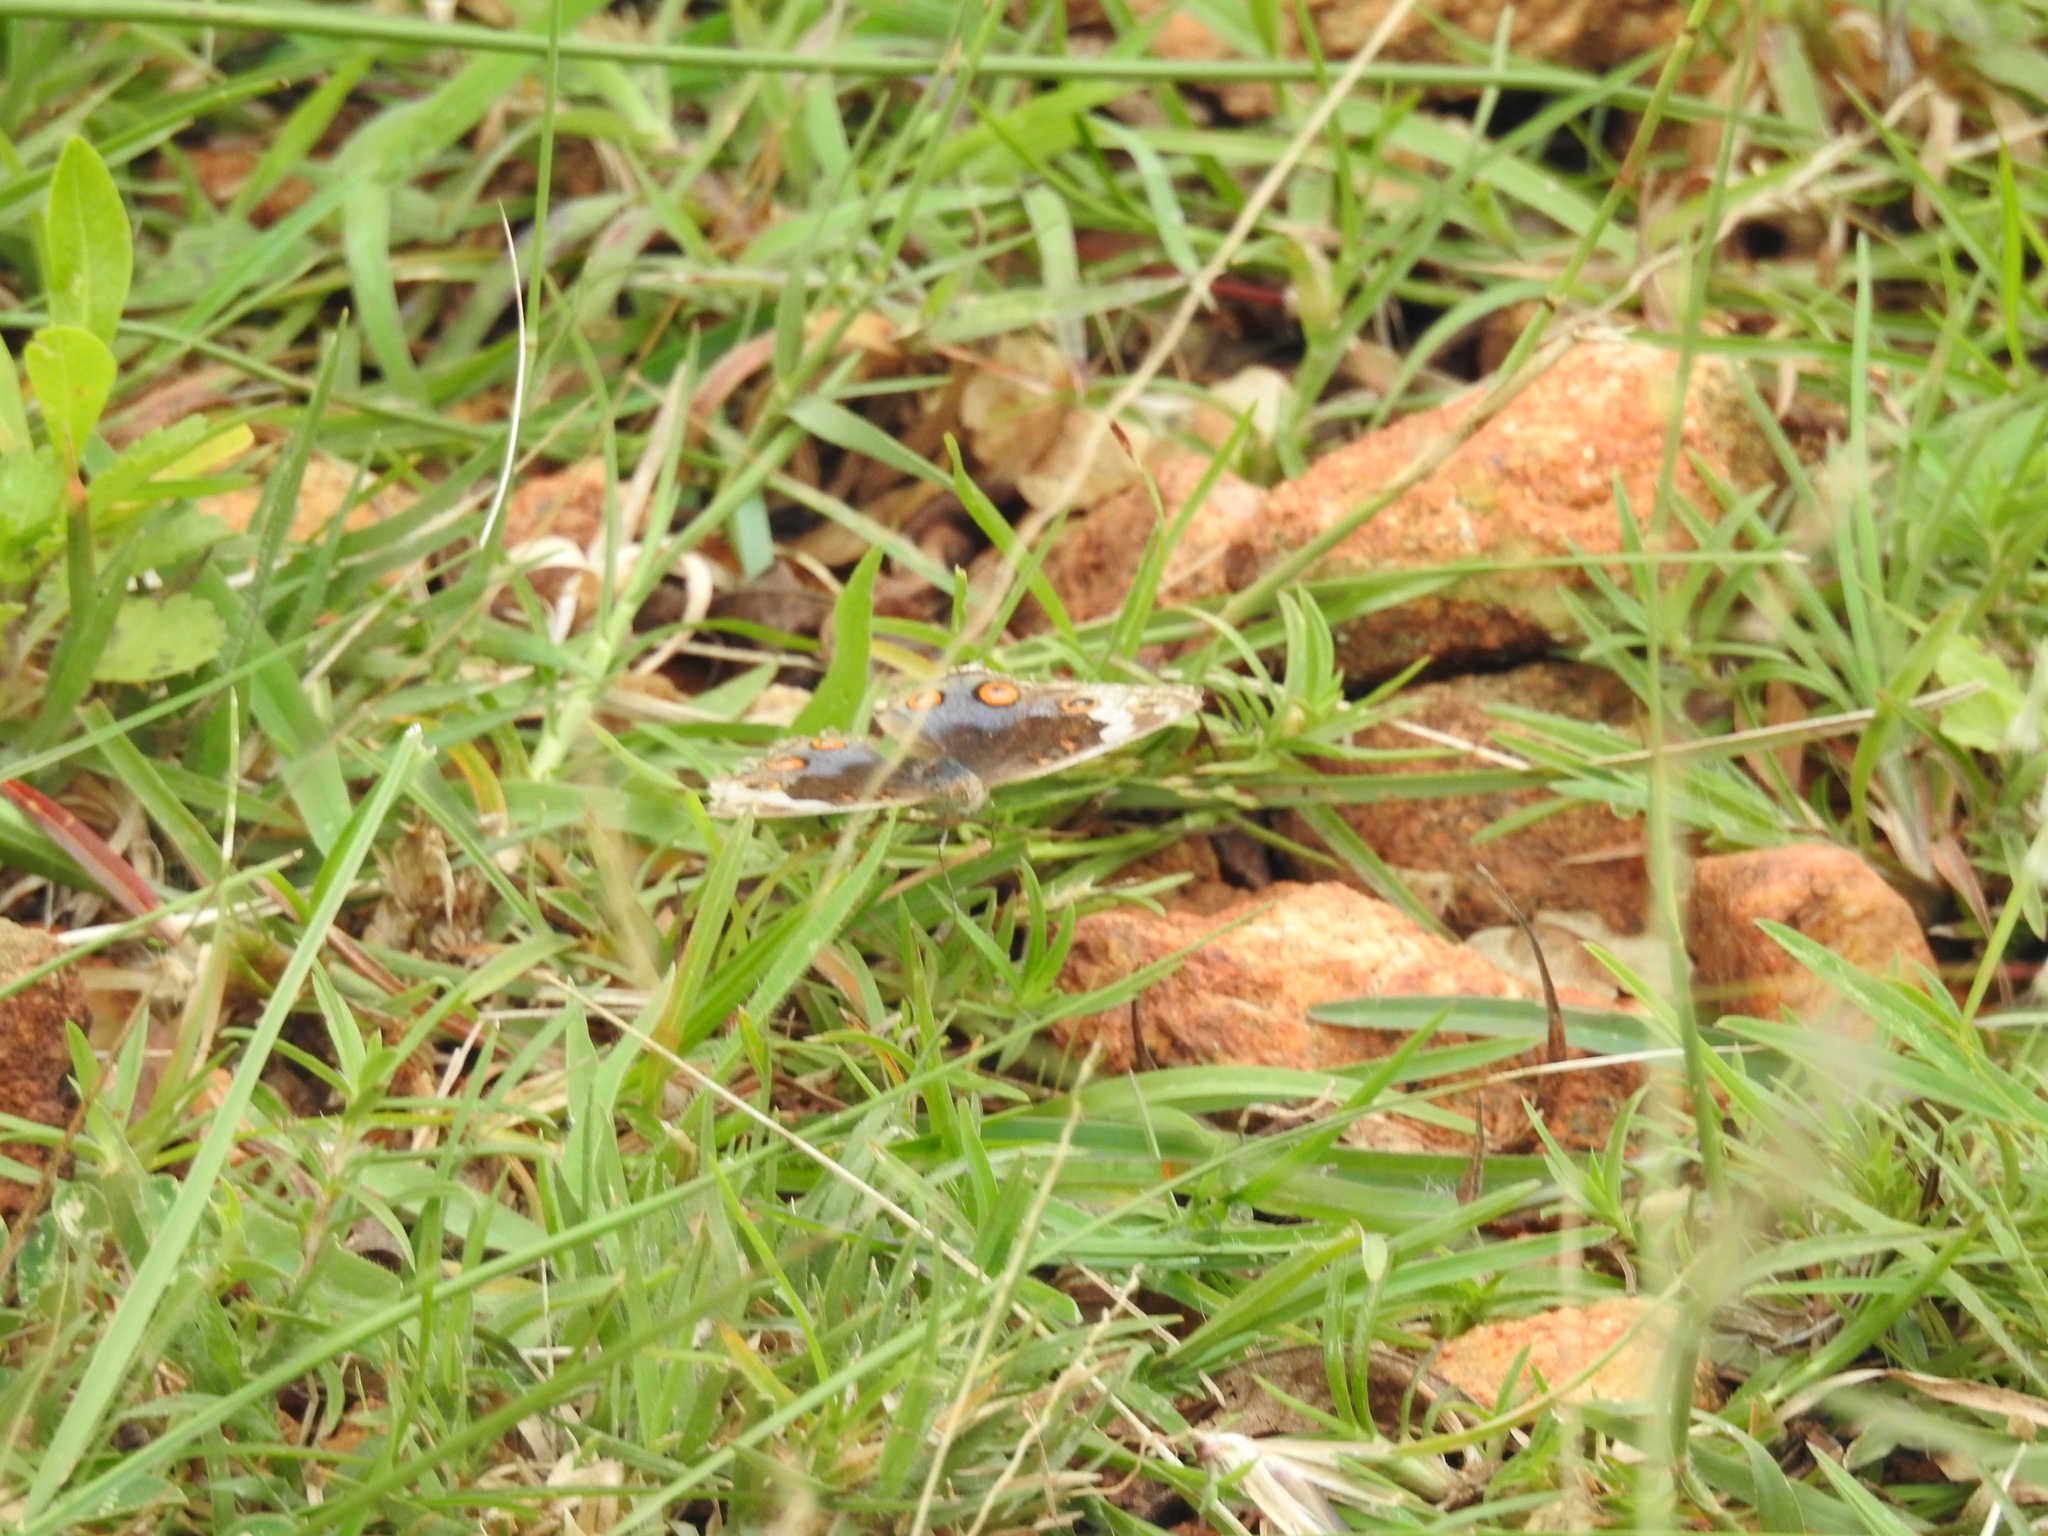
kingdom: Animalia
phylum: Arthropoda
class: Insecta
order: Lepidoptera
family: Nymphalidae
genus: Junonia
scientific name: Junonia orithya
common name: Blue pansy
